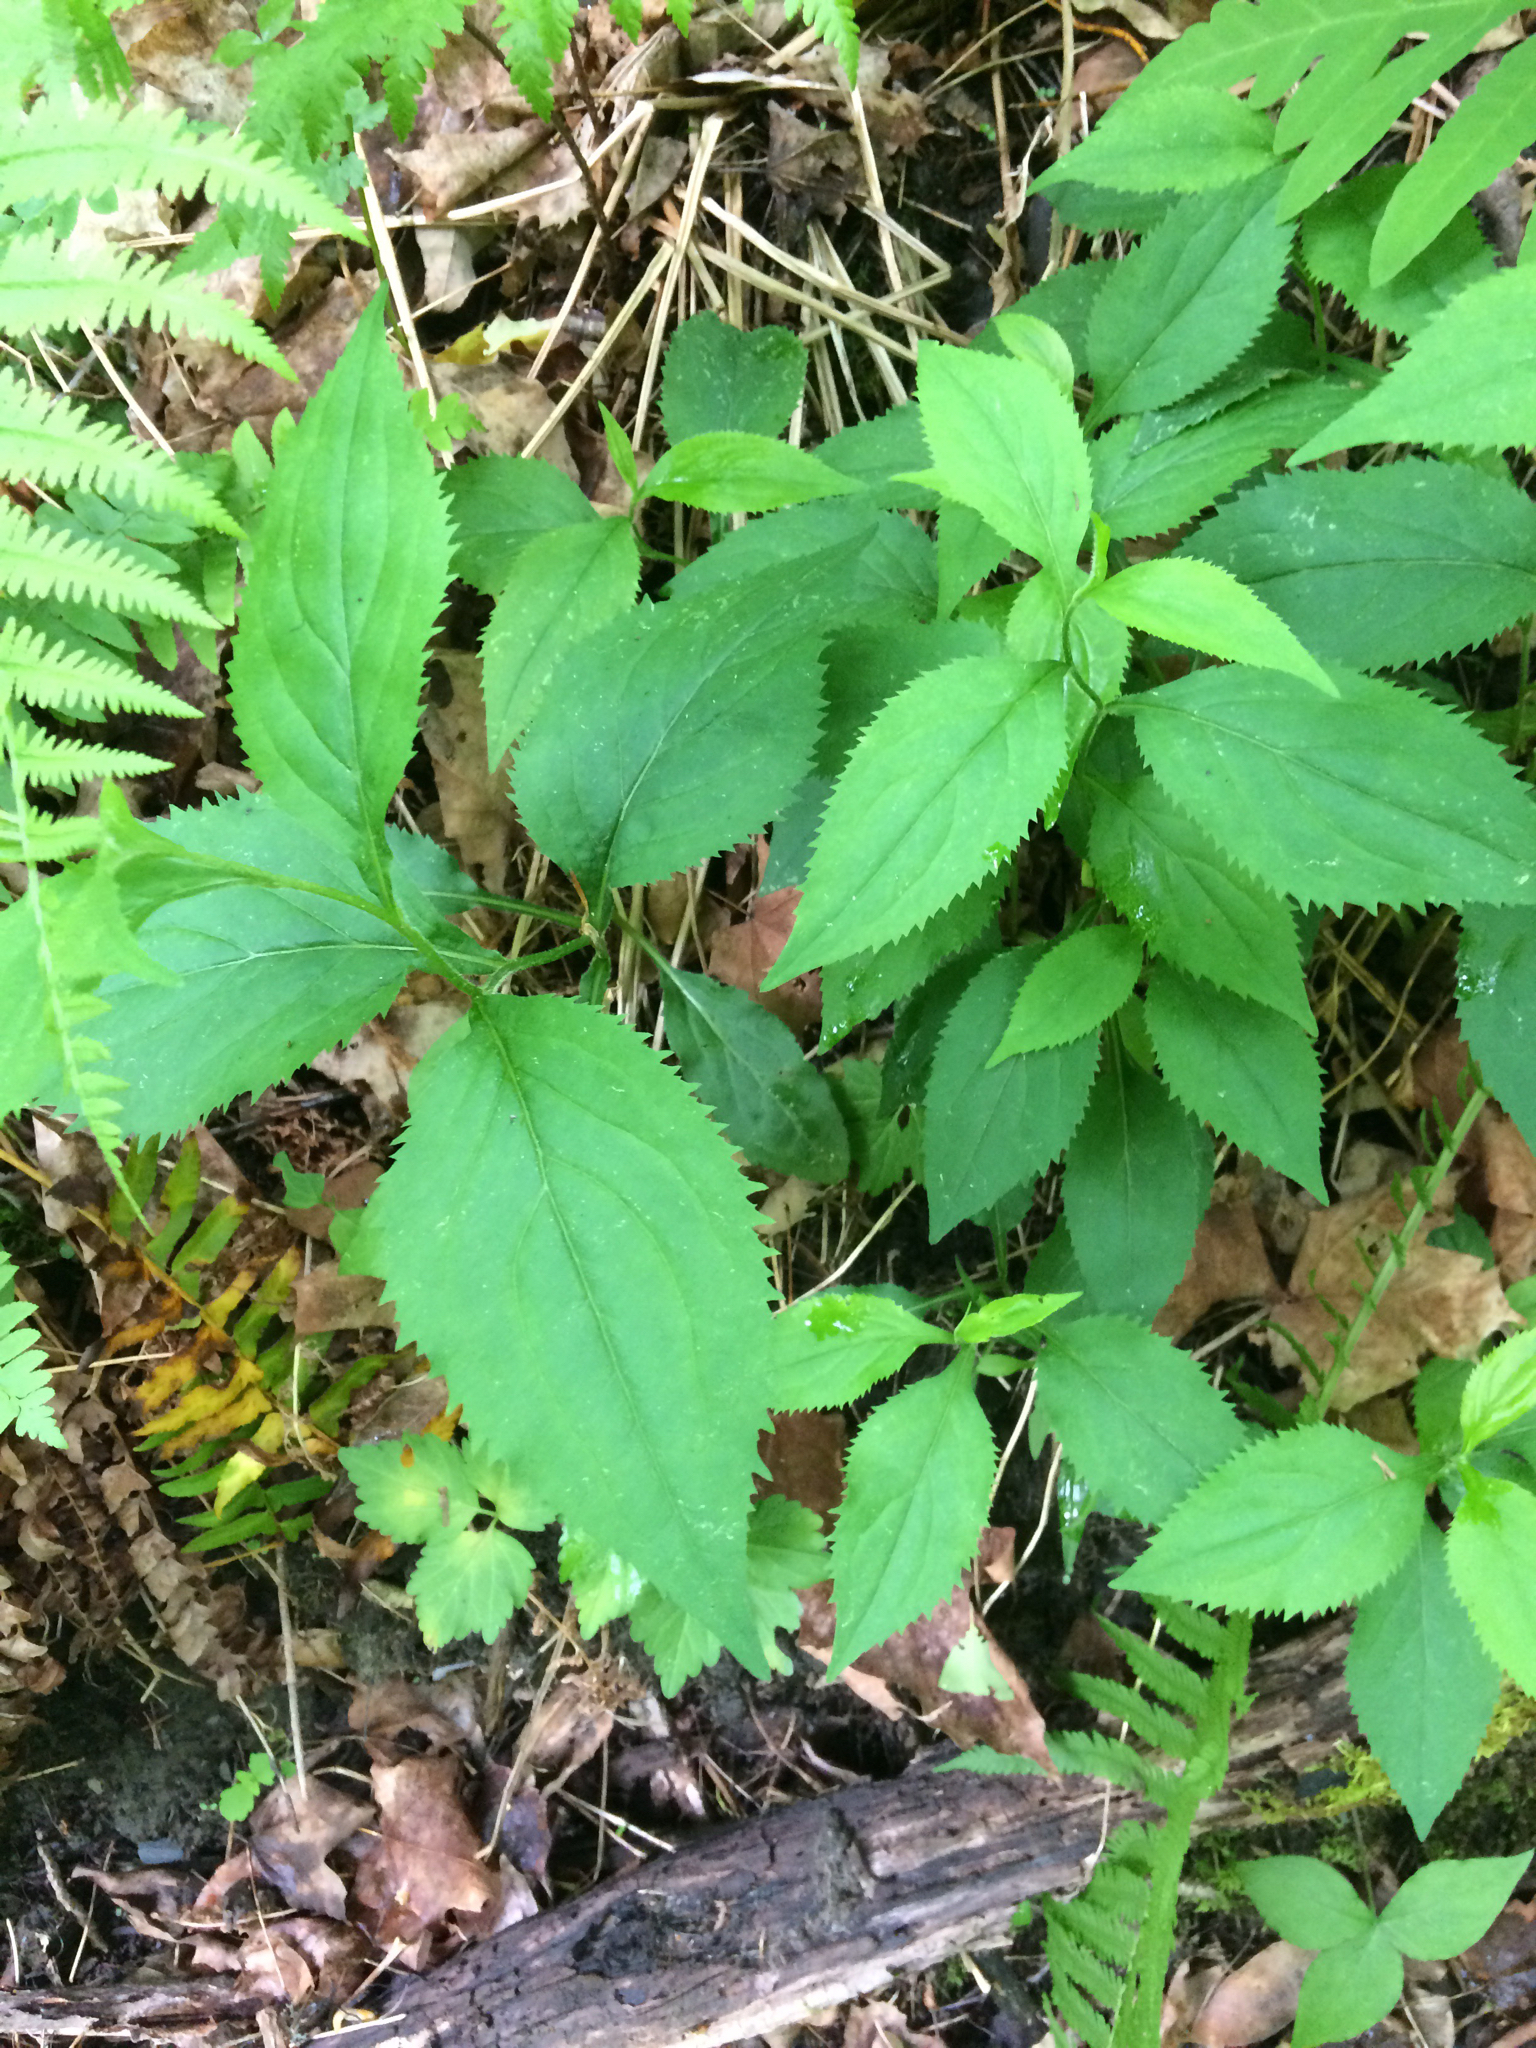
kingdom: Plantae
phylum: Tracheophyta
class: Magnoliopsida
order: Asterales
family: Asteraceae
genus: Solidago
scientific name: Solidago flexicaulis
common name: Zig-zag goldenrod
